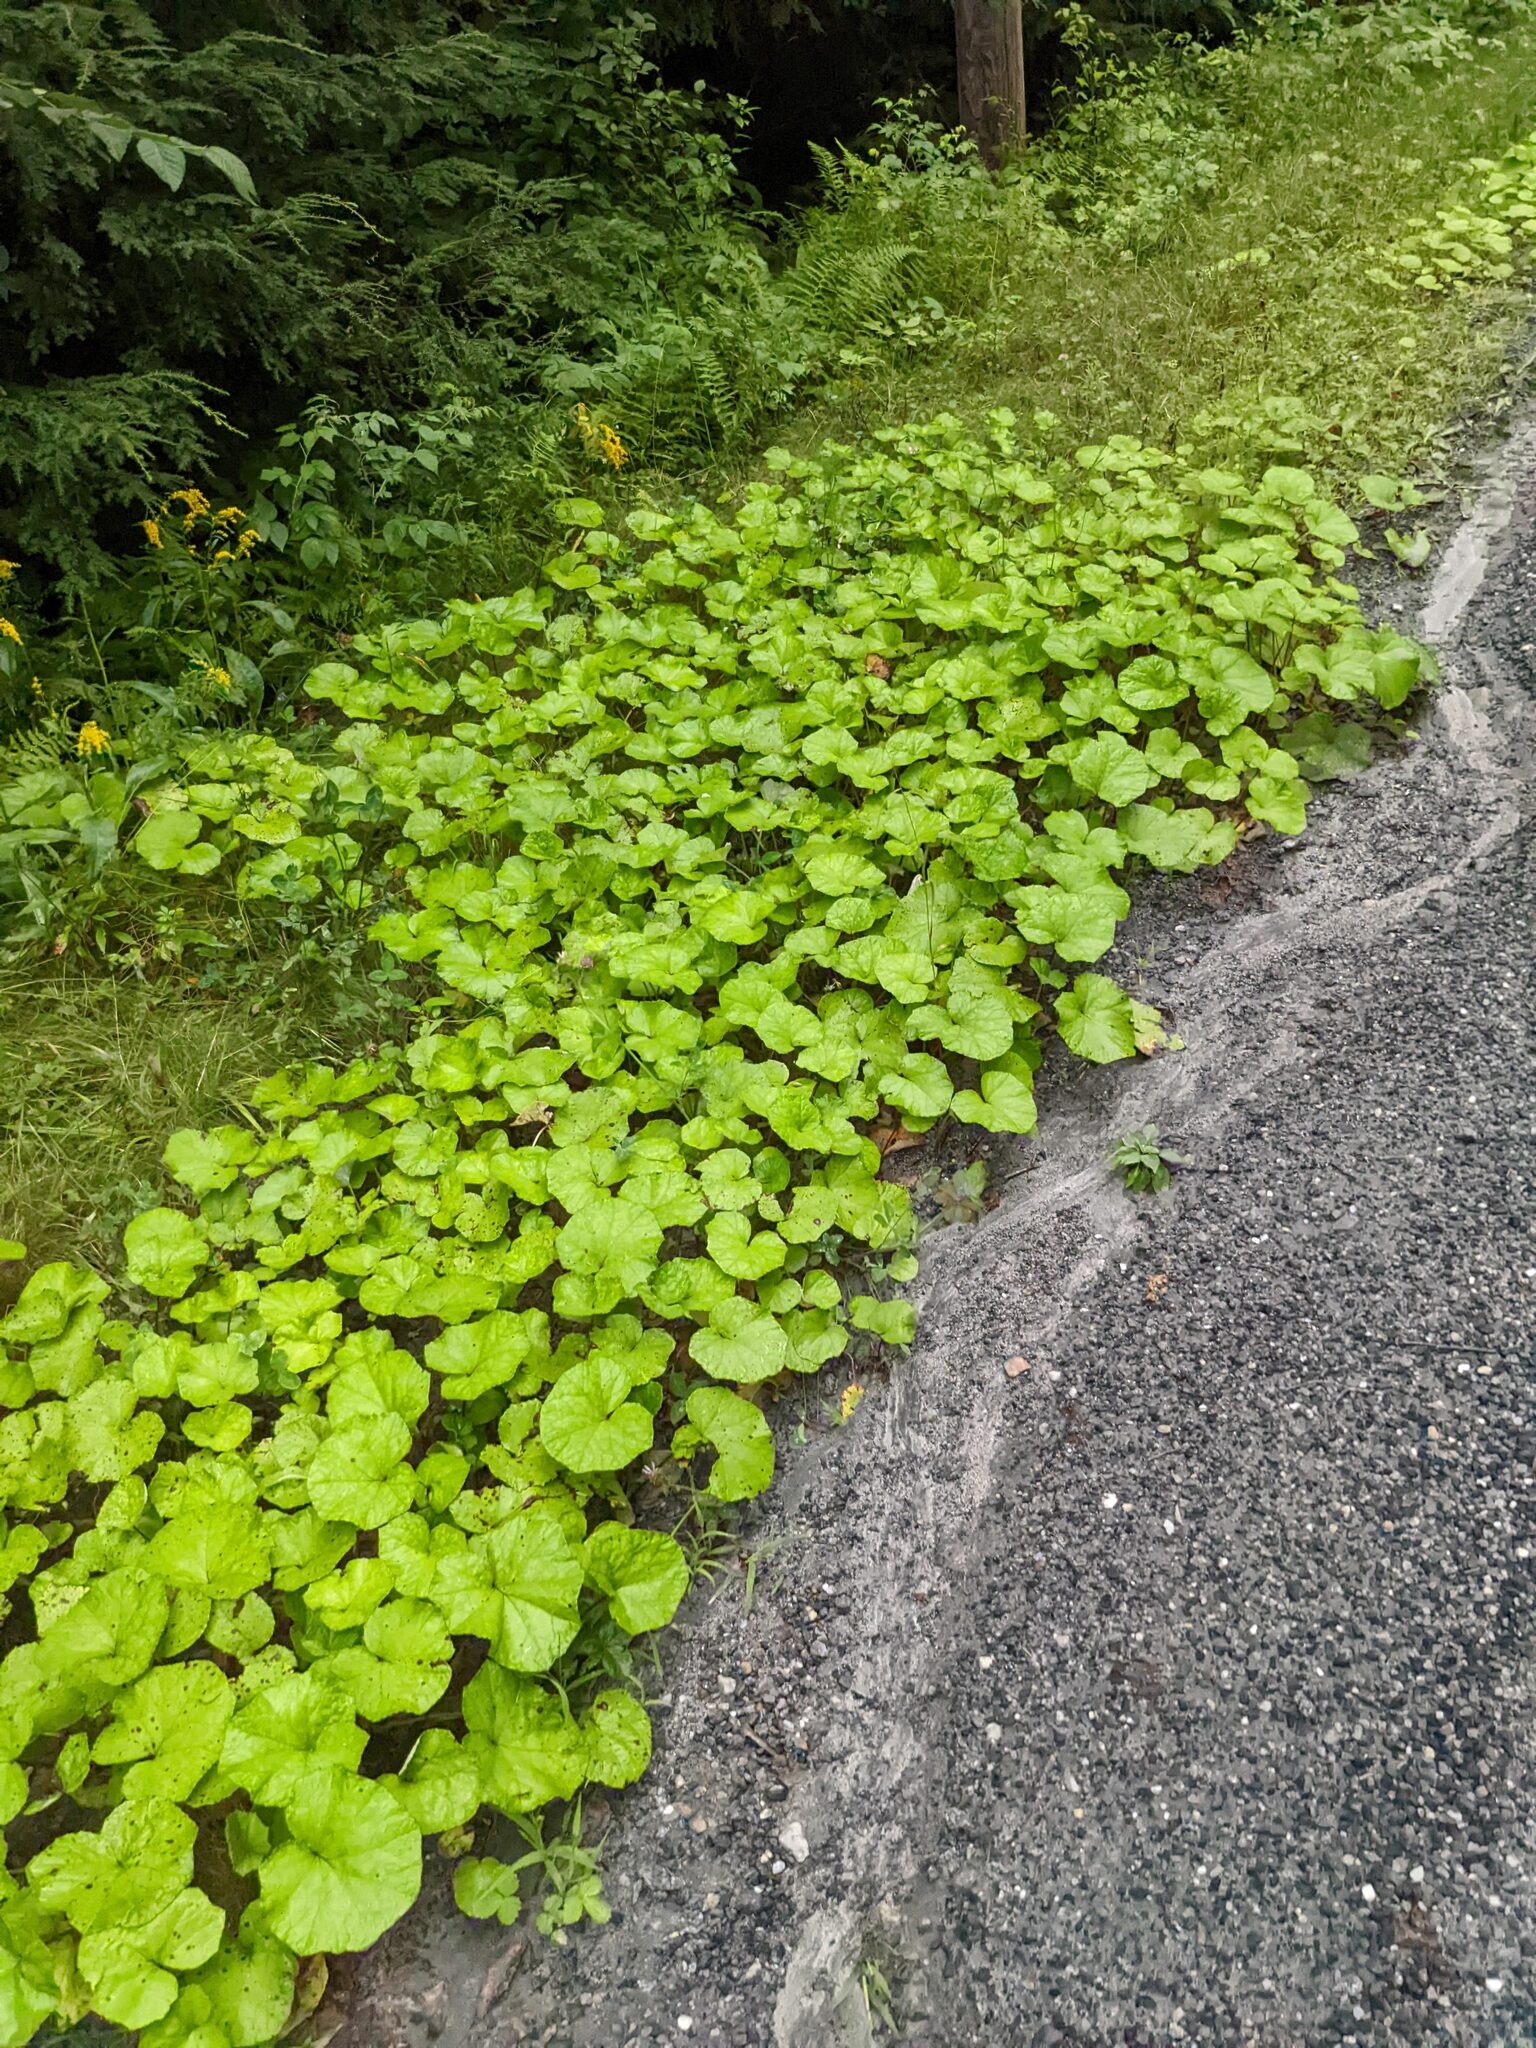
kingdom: Plantae
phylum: Tracheophyta
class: Magnoliopsida
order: Asterales
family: Asteraceae
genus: Tussilago
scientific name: Tussilago farfara
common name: Coltsfoot
